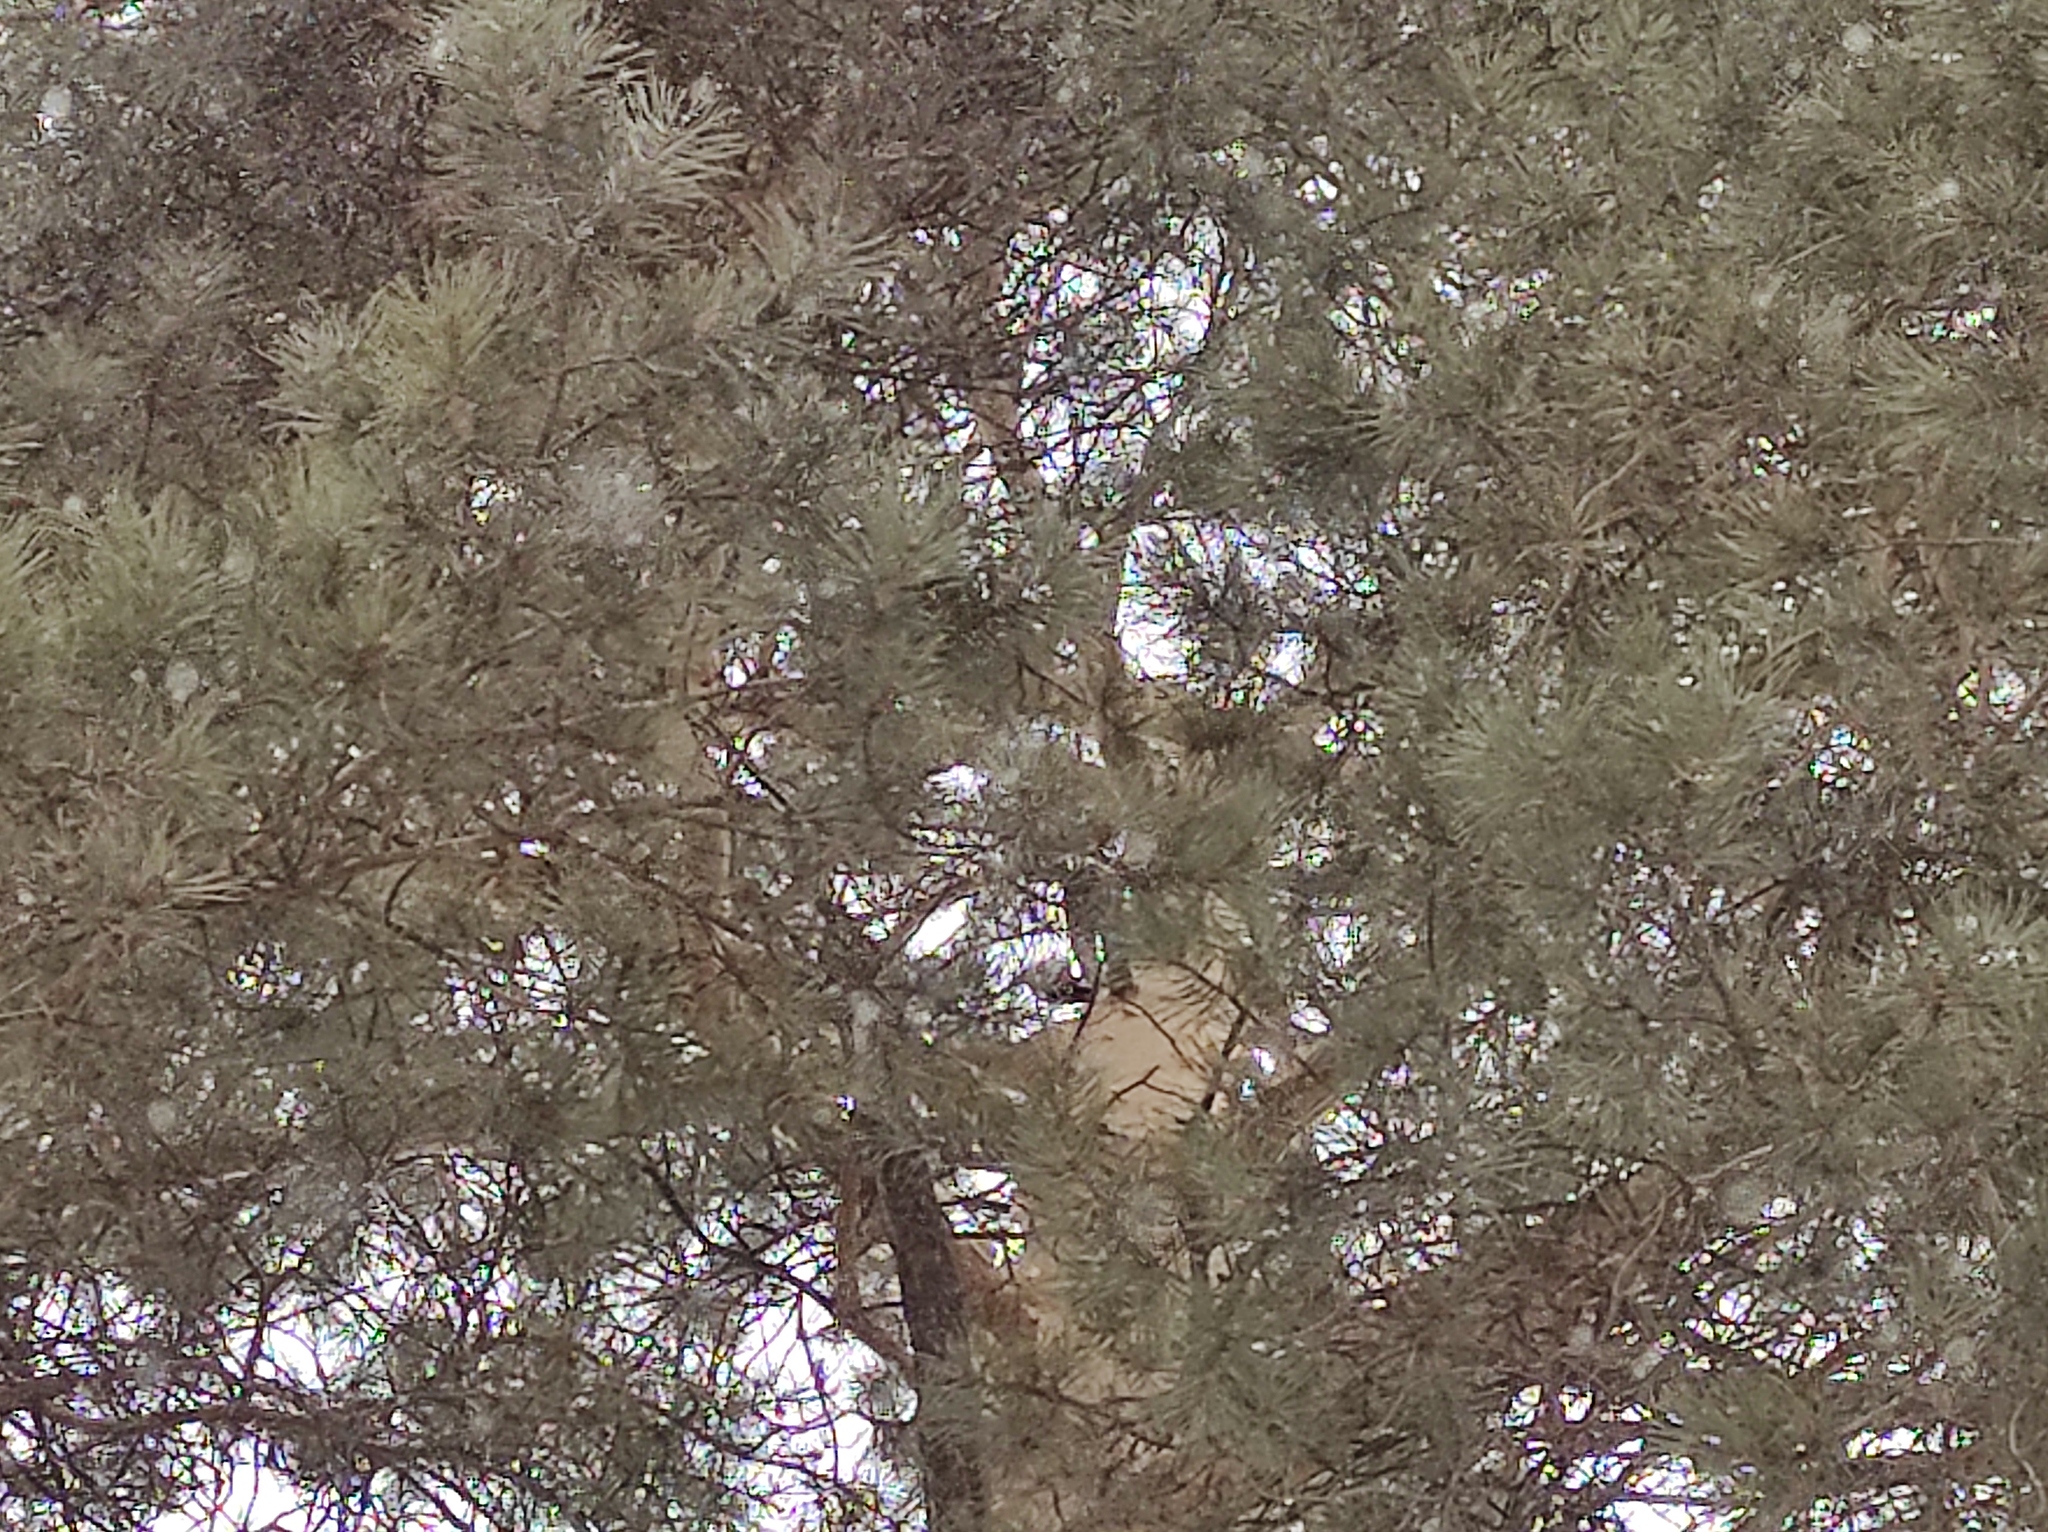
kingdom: Animalia
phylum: Chordata
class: Aves
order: Piciformes
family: Picidae
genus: Dendrocopos
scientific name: Dendrocopos major
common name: Great spotted woodpecker
